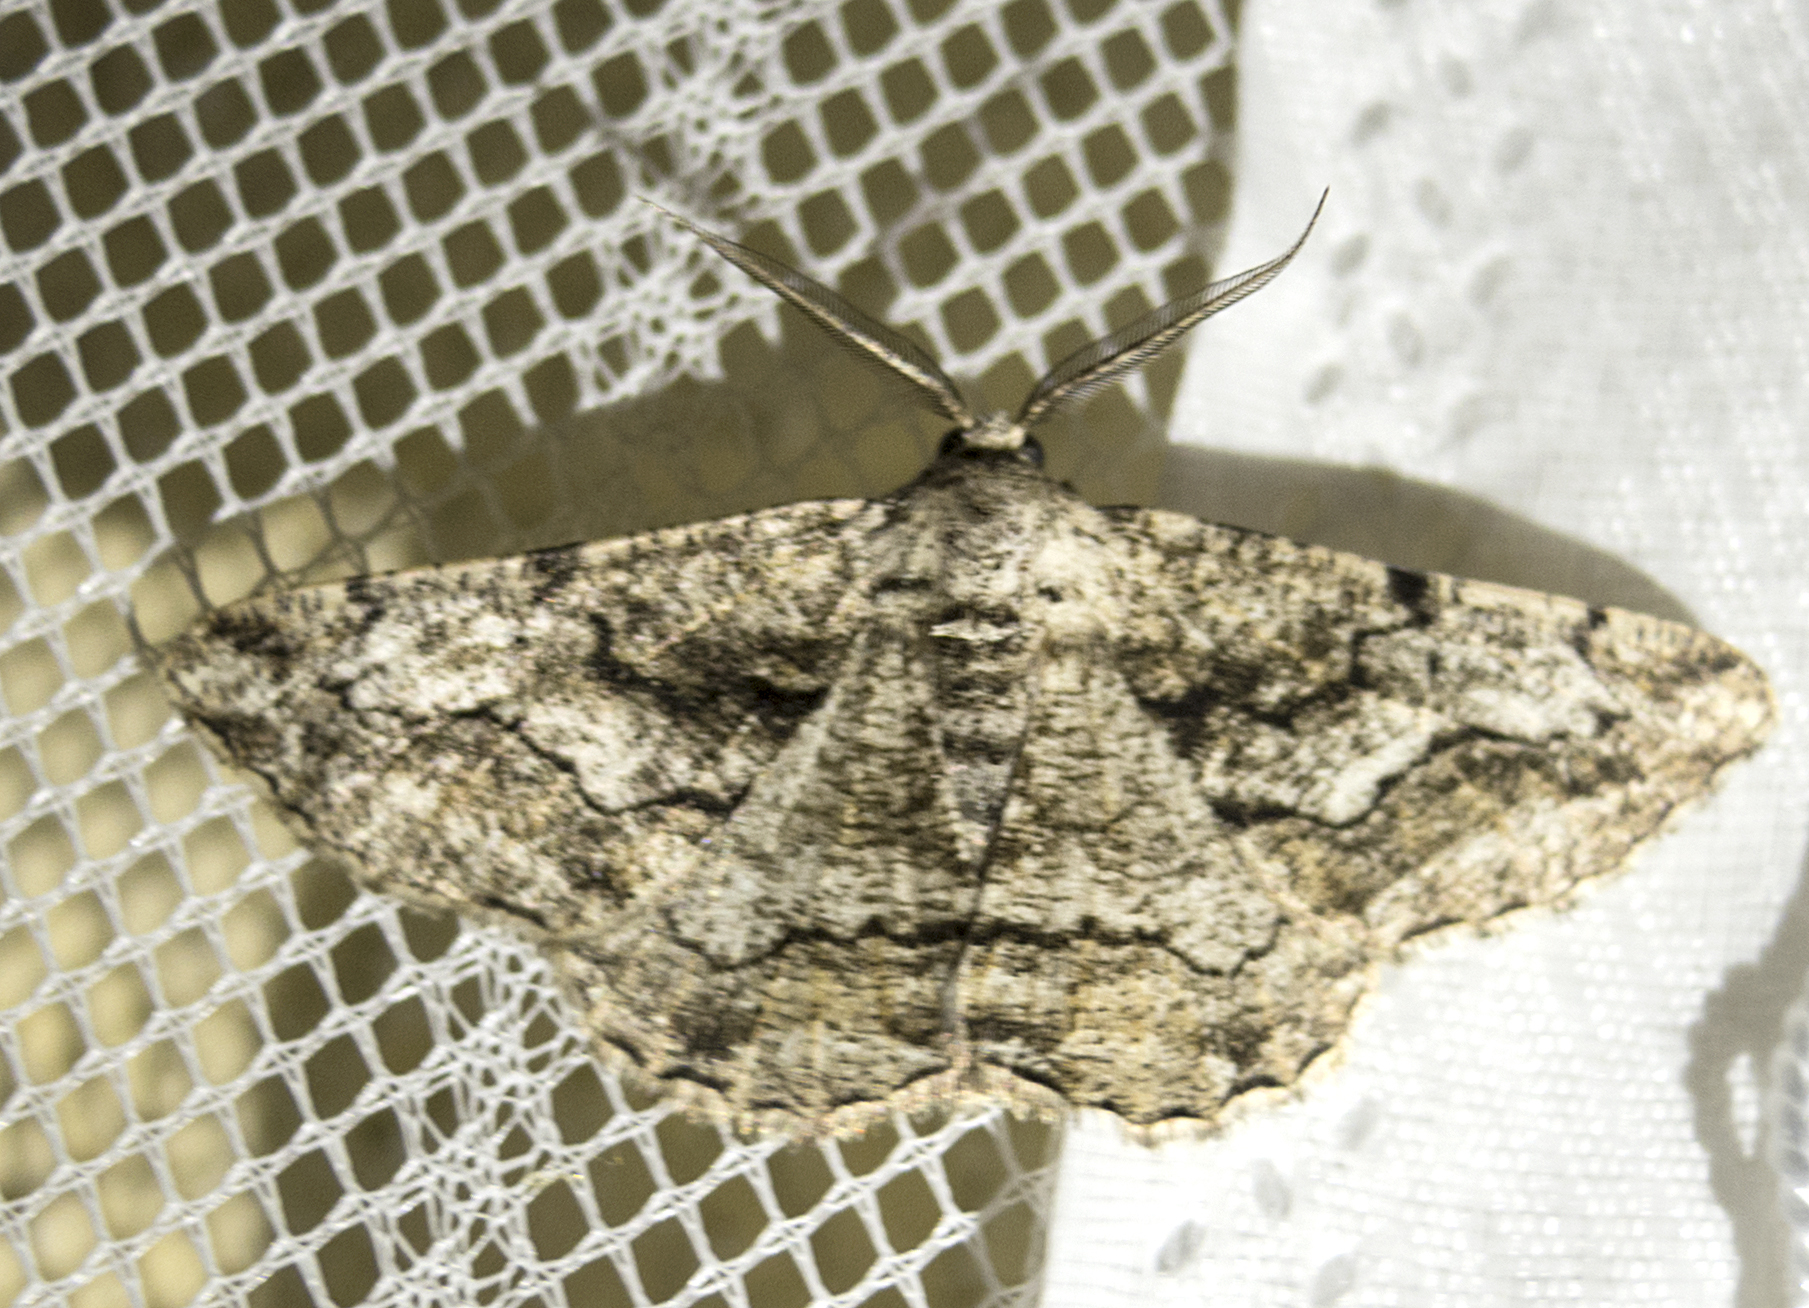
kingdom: Animalia
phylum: Arthropoda
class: Insecta
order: Lepidoptera
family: Geometridae
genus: Synopsia
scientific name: Synopsia sociaria
